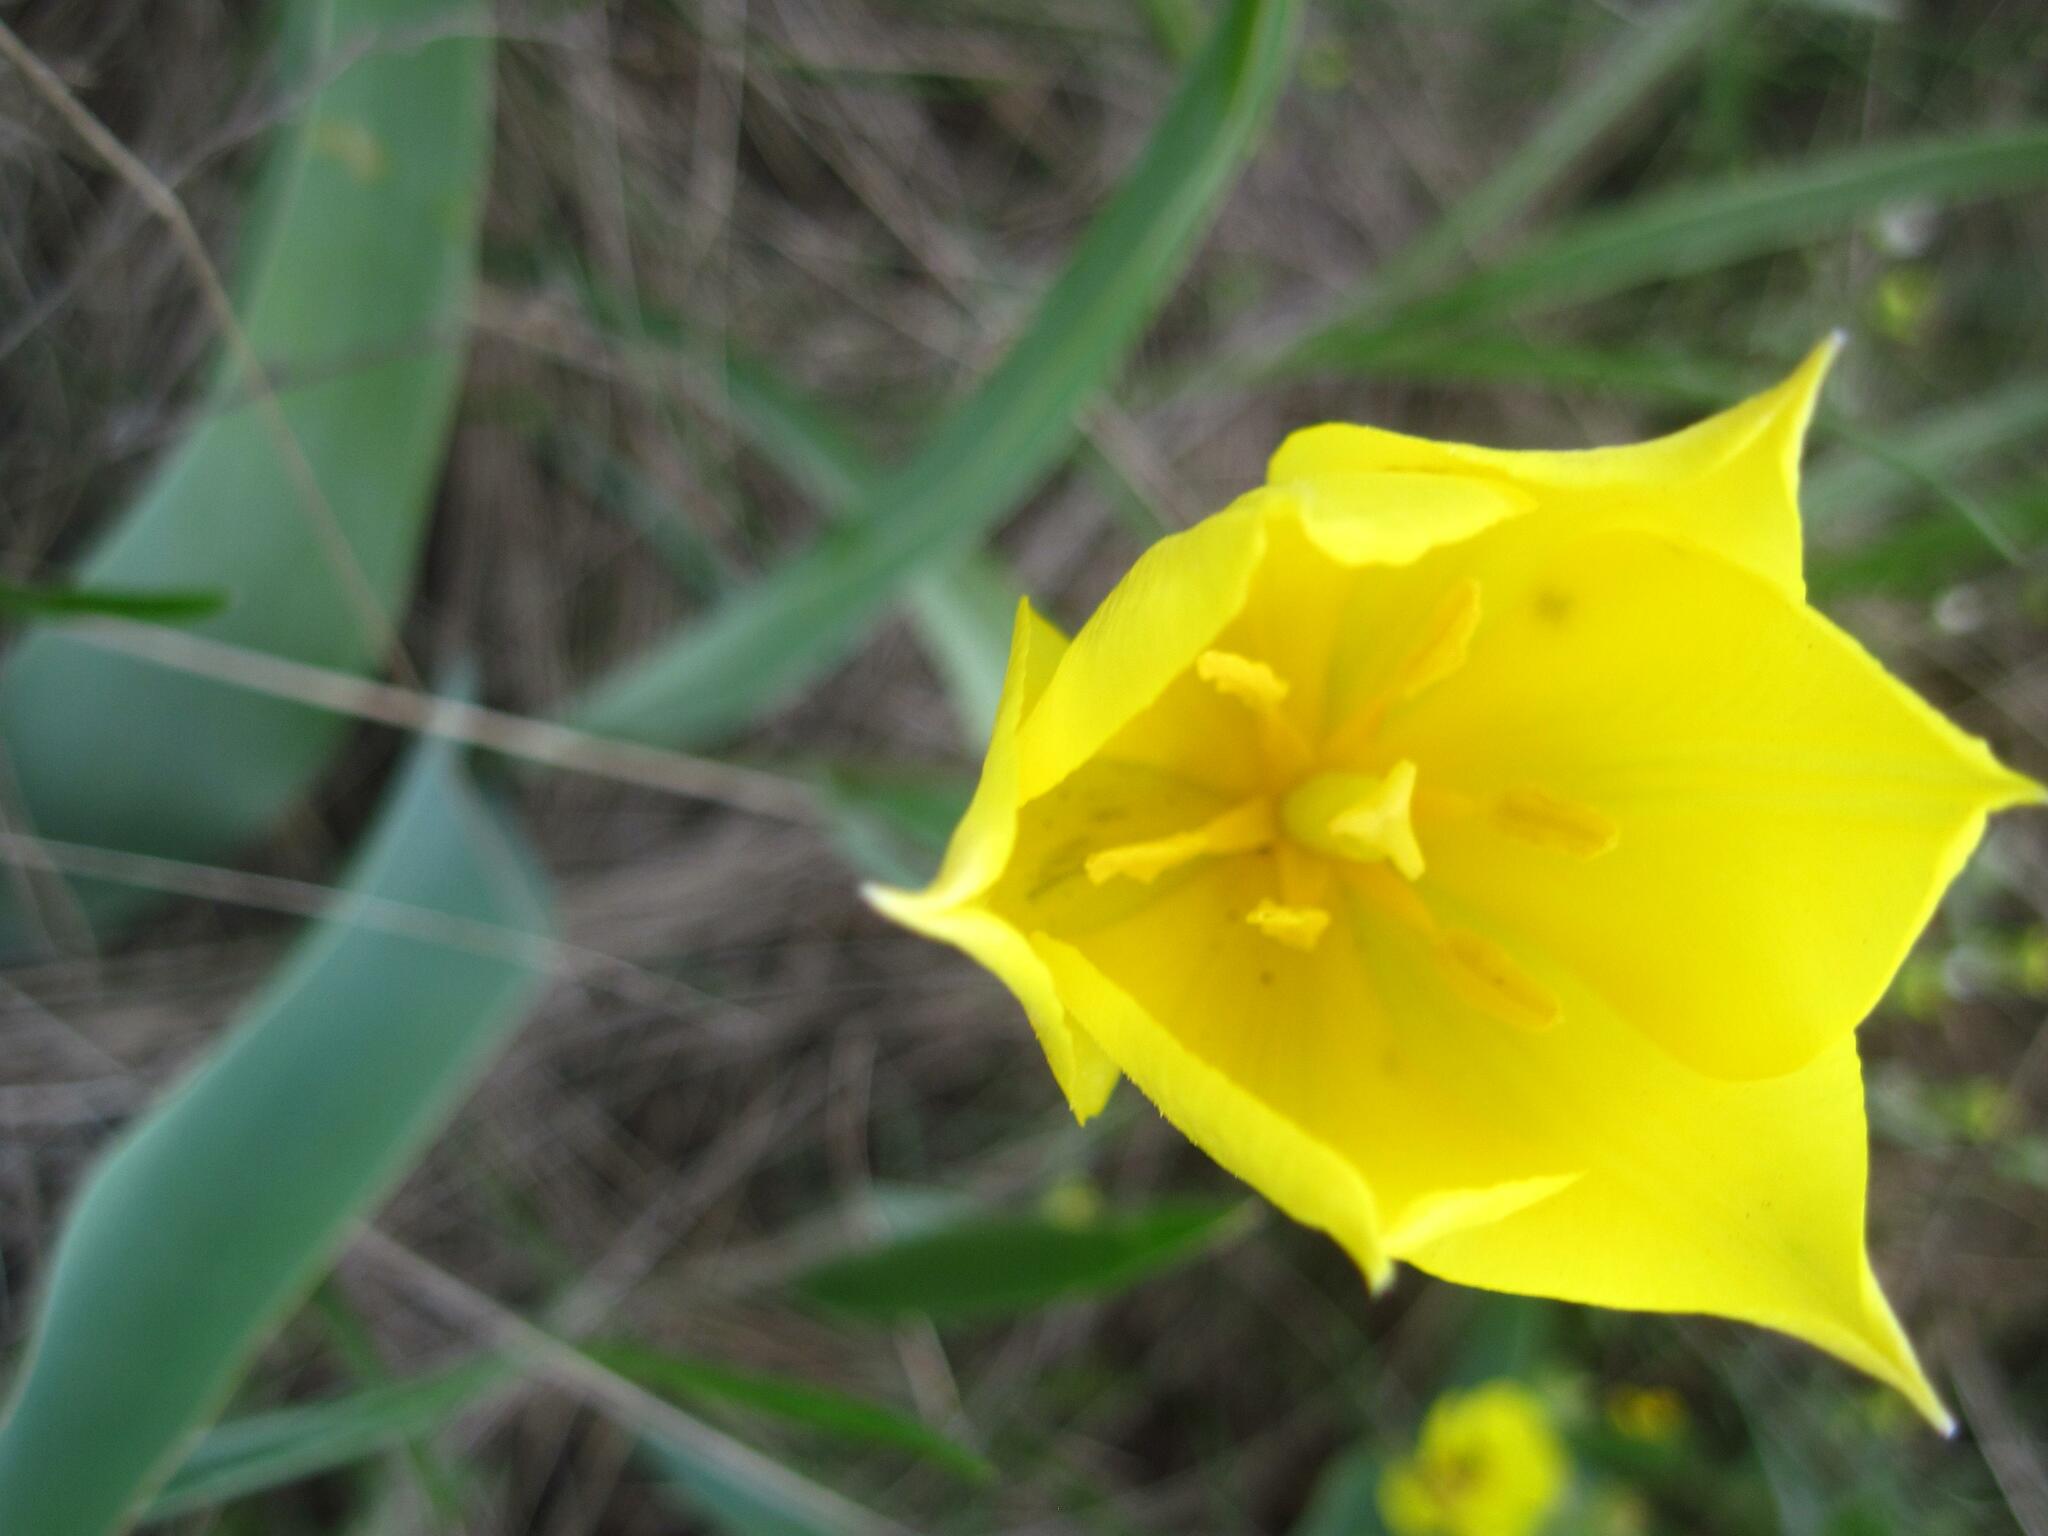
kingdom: Plantae
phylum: Tracheophyta
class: Liliopsida
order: Liliales
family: Liliaceae
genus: Tulipa
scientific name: Tulipa suaveolens
